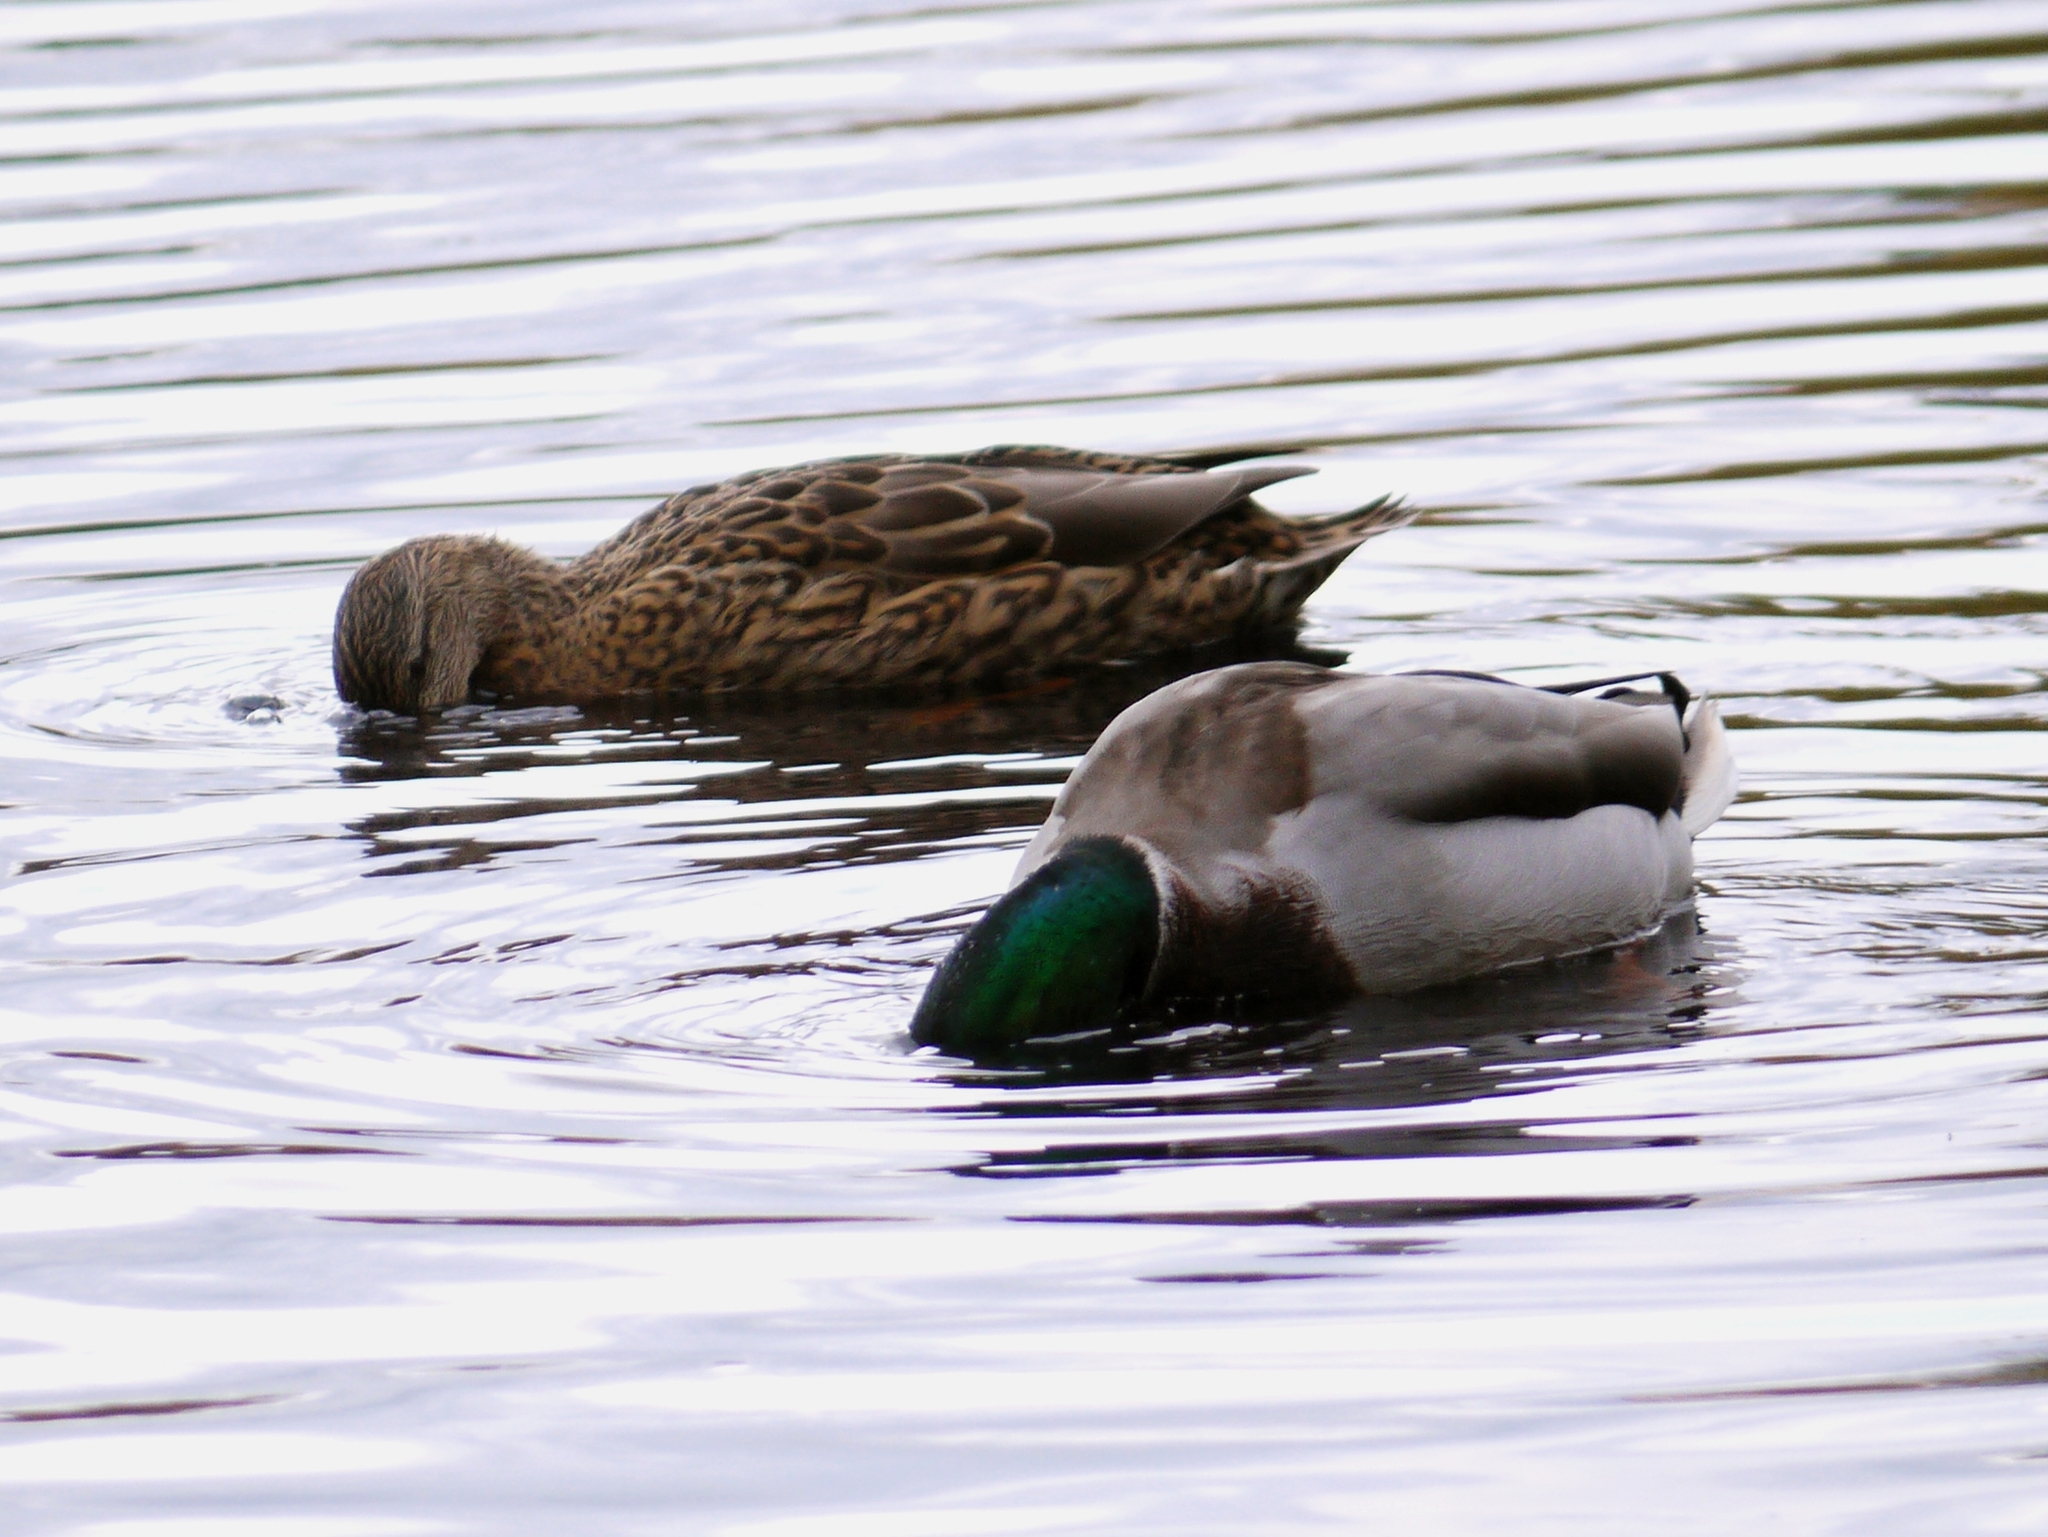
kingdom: Animalia
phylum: Chordata
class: Aves
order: Anseriformes
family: Anatidae
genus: Anas
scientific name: Anas platyrhynchos
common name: Mallard
